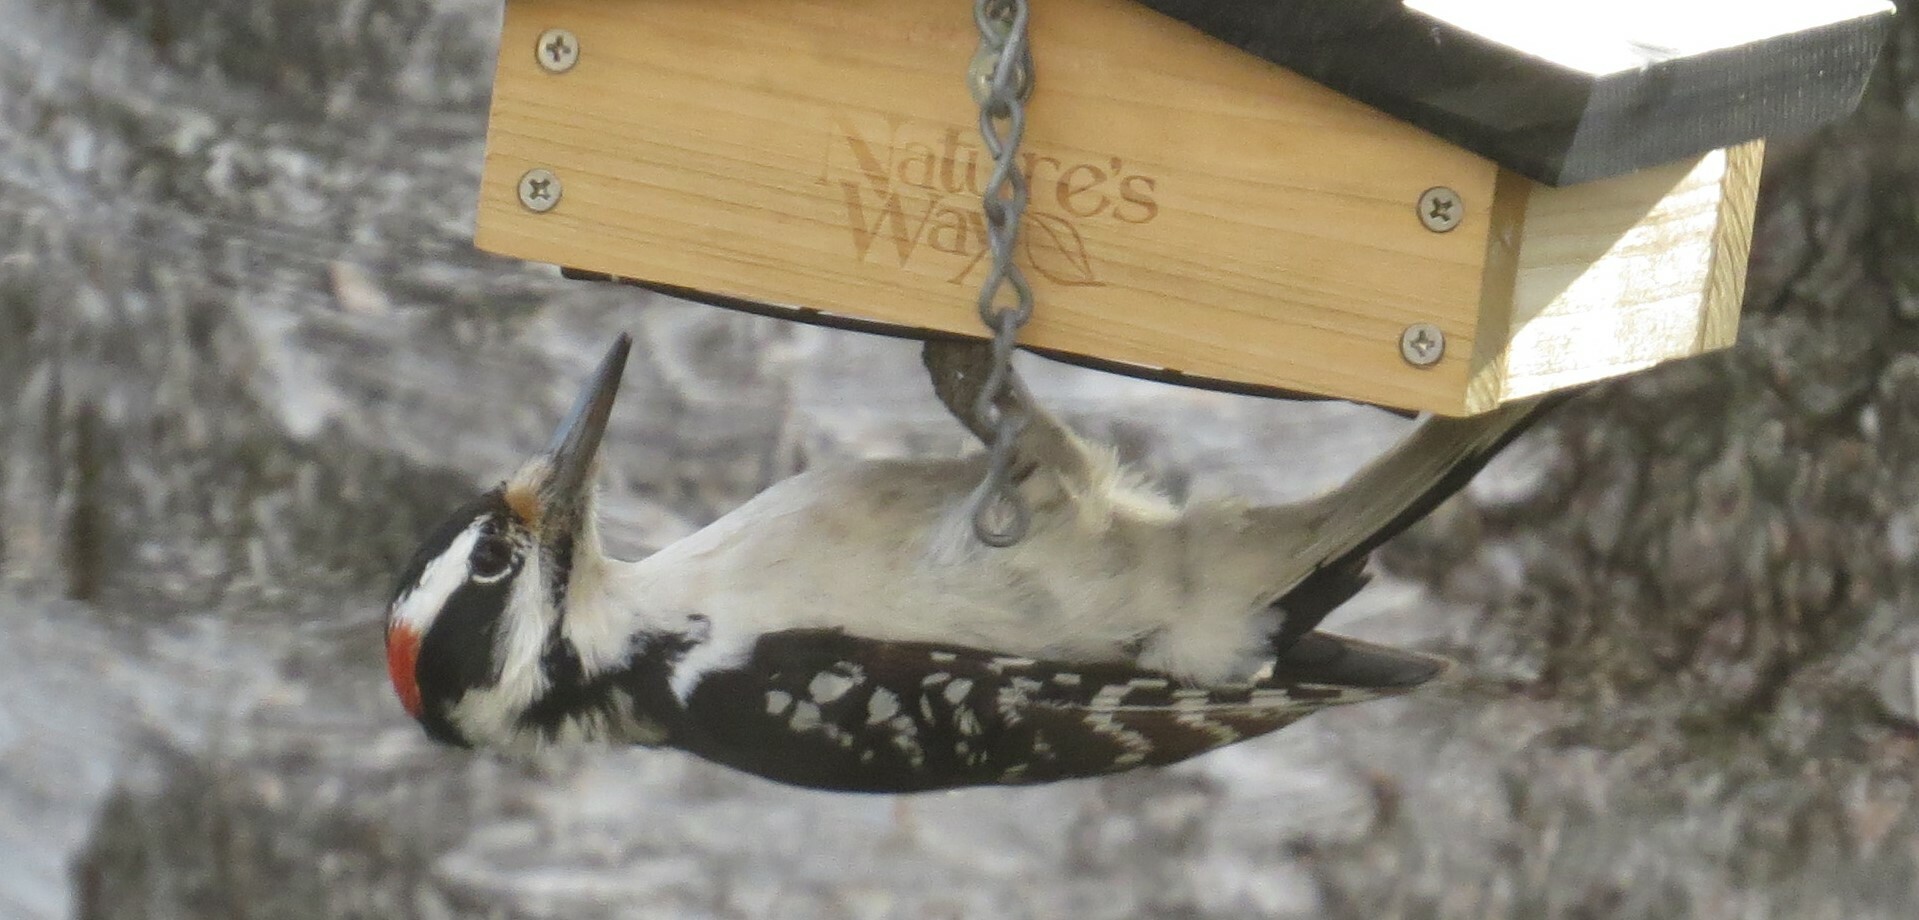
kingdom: Animalia
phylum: Chordata
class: Aves
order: Piciformes
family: Picidae
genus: Leuconotopicus
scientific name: Leuconotopicus villosus
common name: Hairy woodpecker
